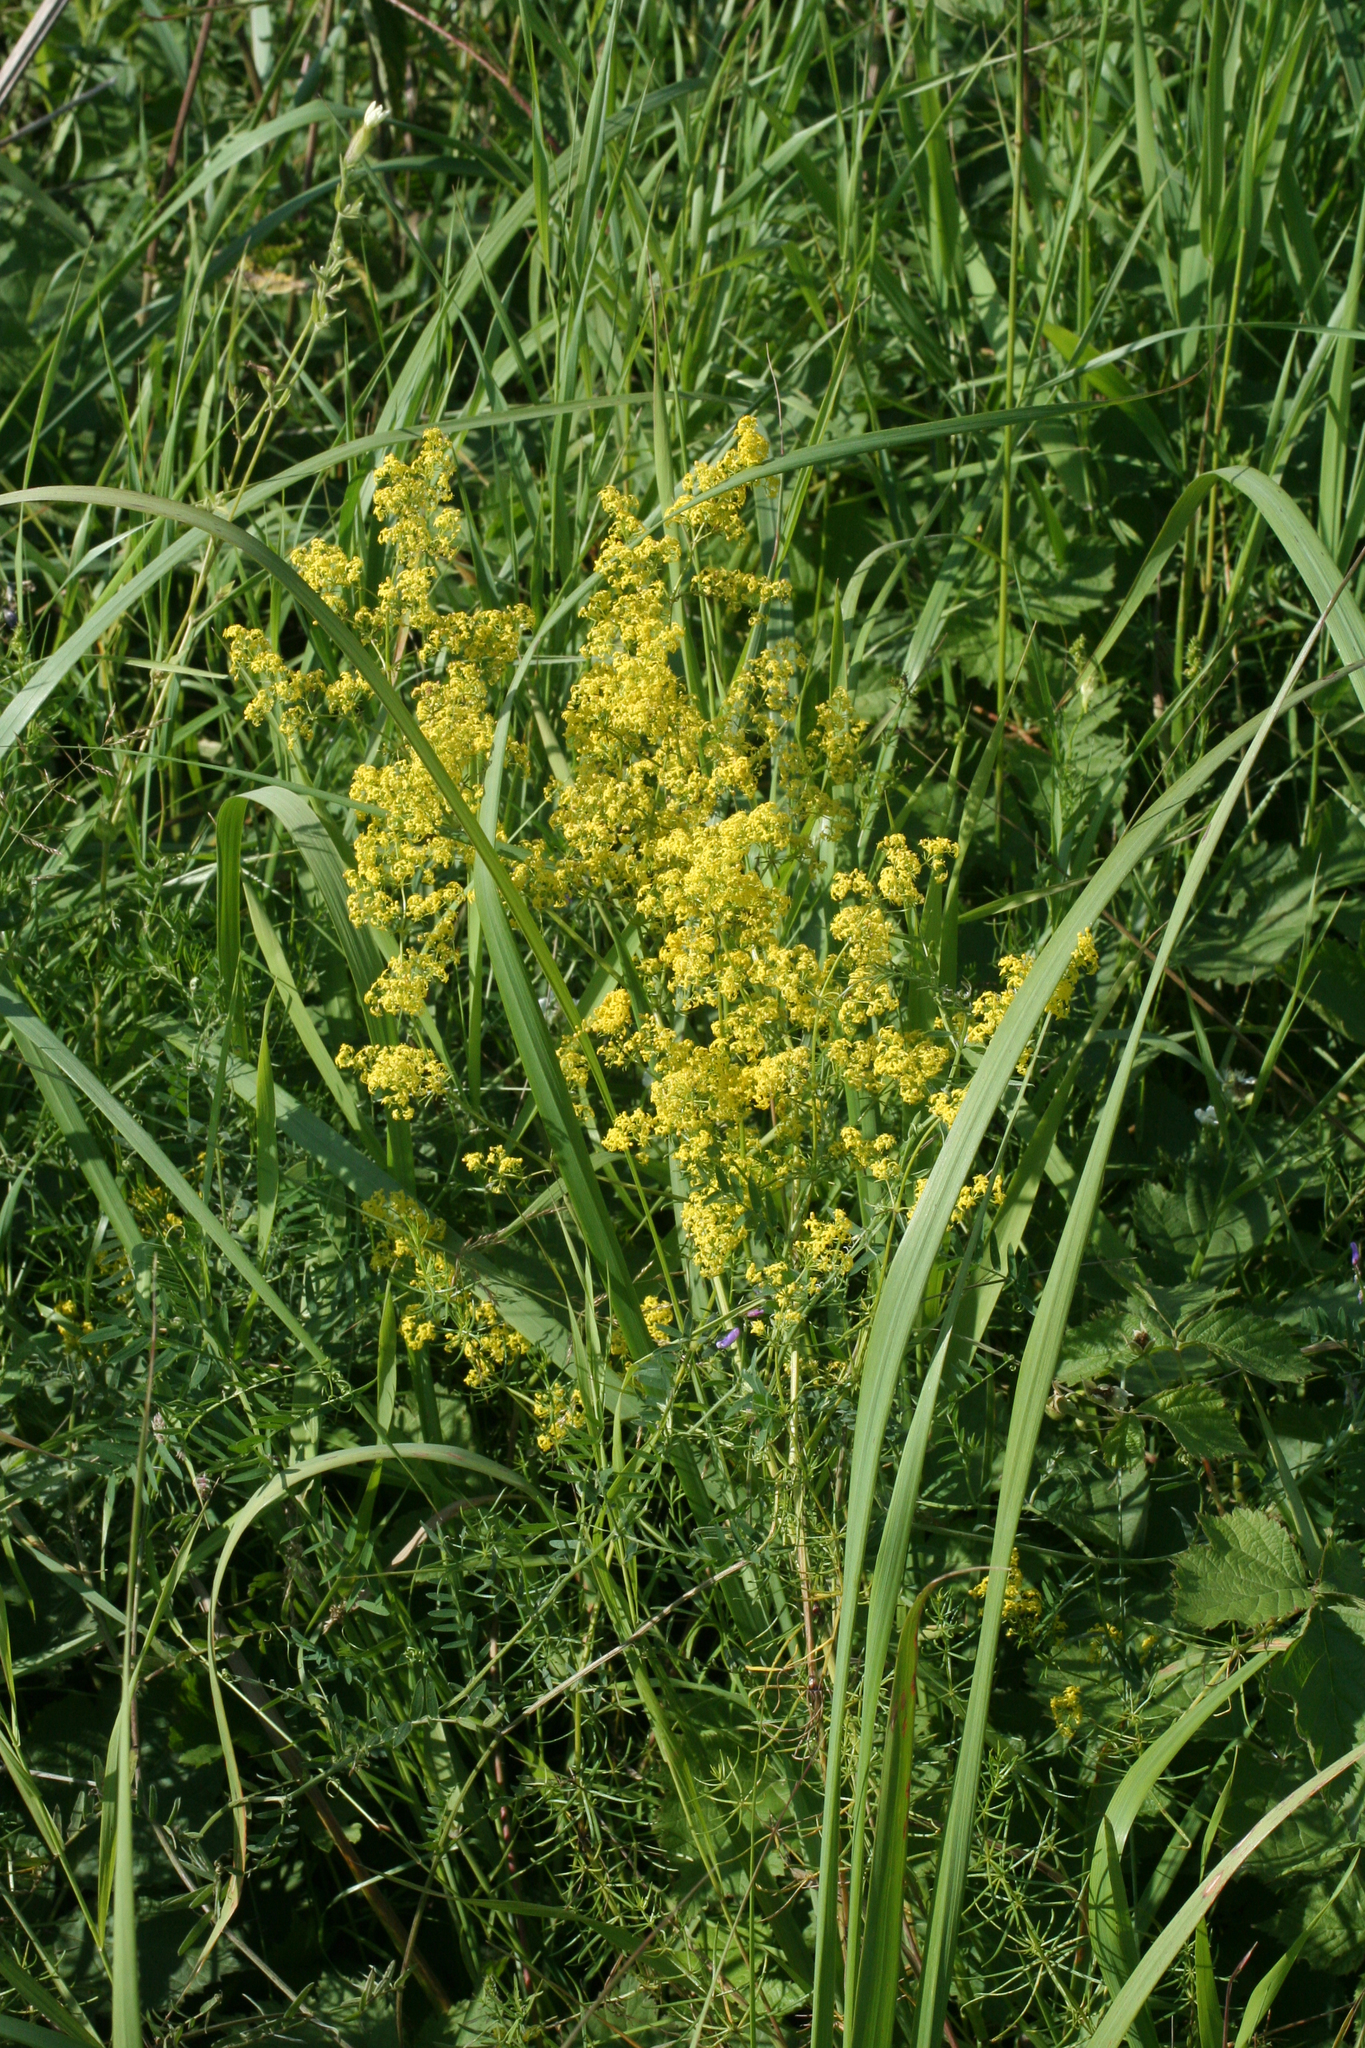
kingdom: Plantae
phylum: Tracheophyta
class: Magnoliopsida
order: Gentianales
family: Rubiaceae
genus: Galium
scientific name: Galium verum
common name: Lady's bedstraw
